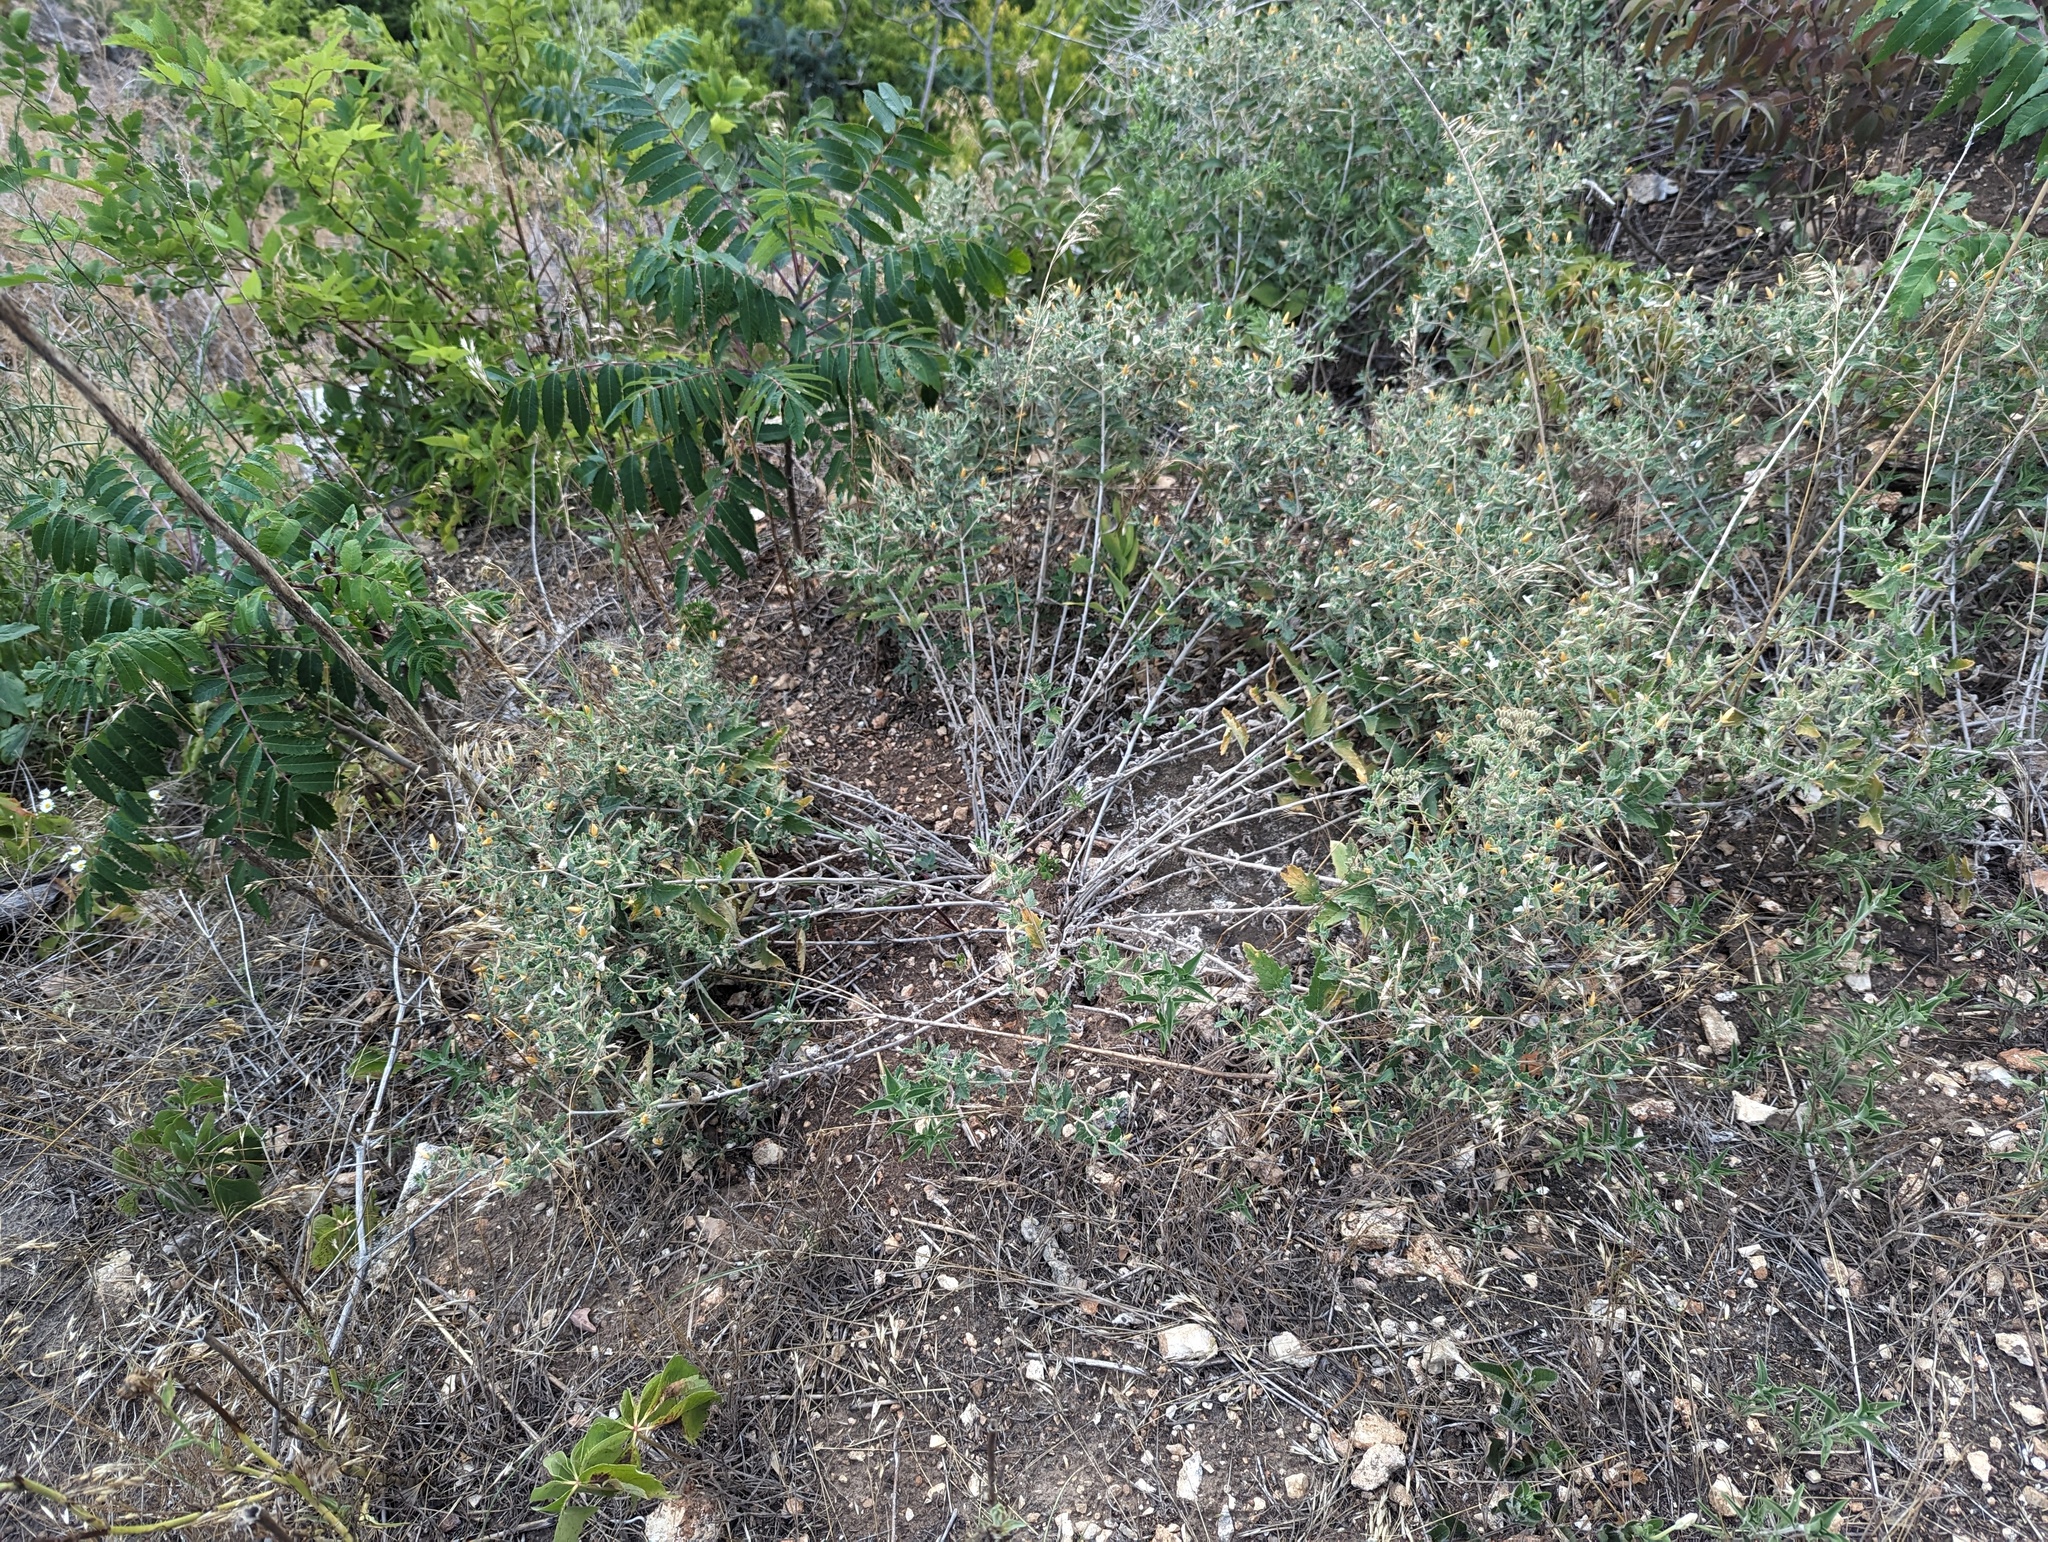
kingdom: Plantae
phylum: Tracheophyta
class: Magnoliopsida
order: Cornales
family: Loasaceae
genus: Mentzelia
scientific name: Mentzelia oligosperma
